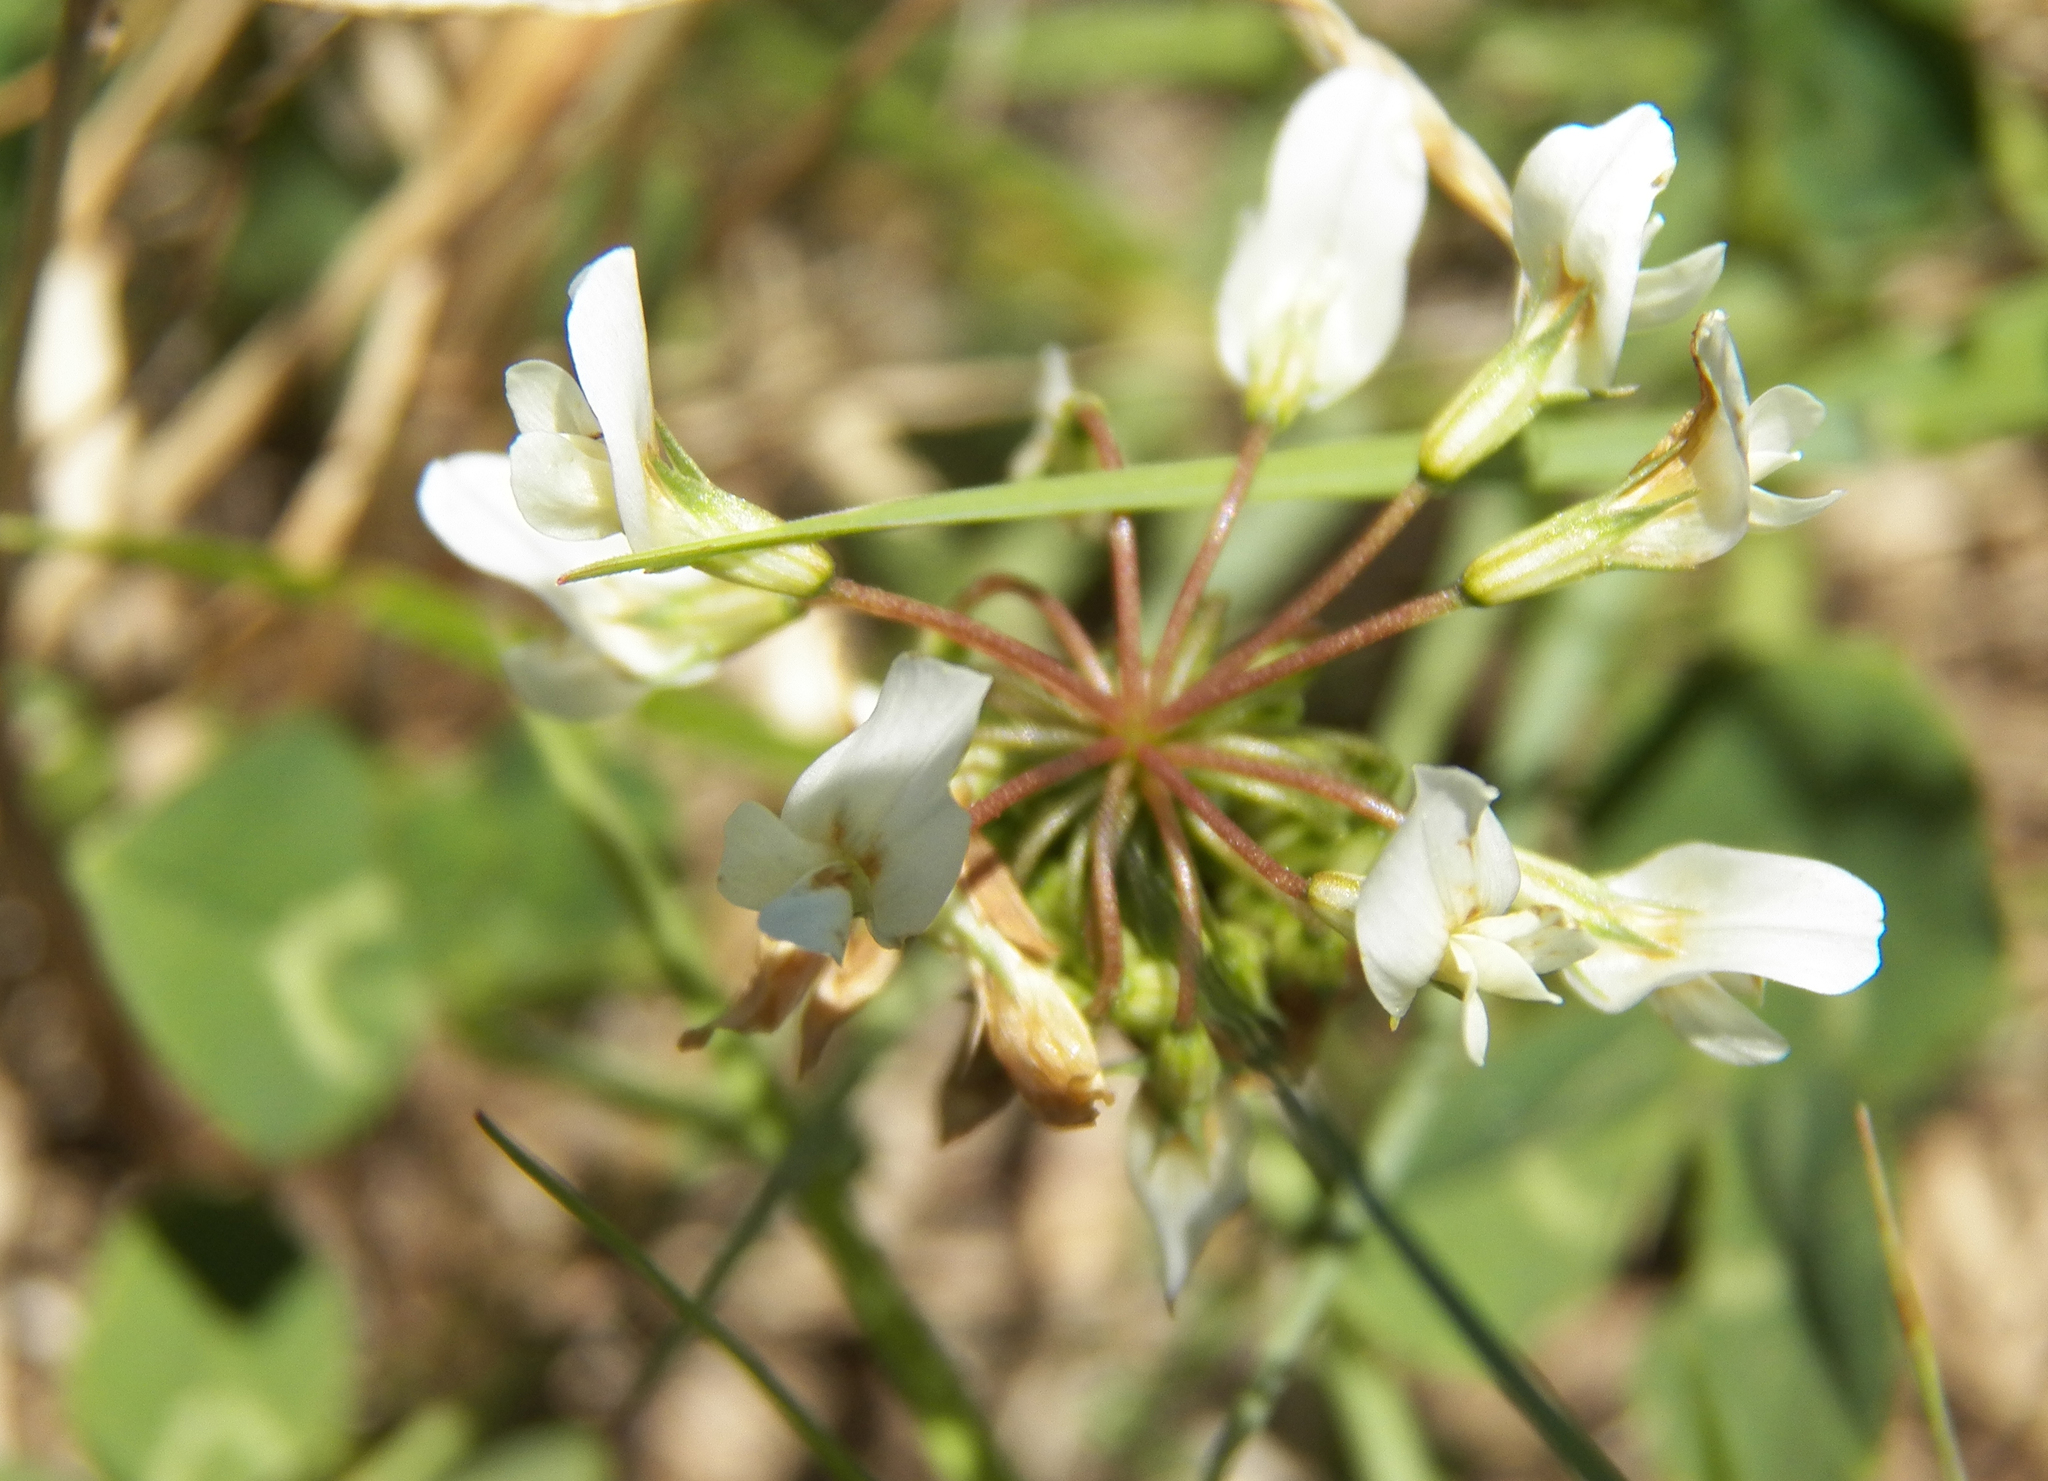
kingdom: Plantae
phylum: Tracheophyta
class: Magnoliopsida
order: Fabales
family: Fabaceae
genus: Trifolium
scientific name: Trifolium repens
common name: White clover
